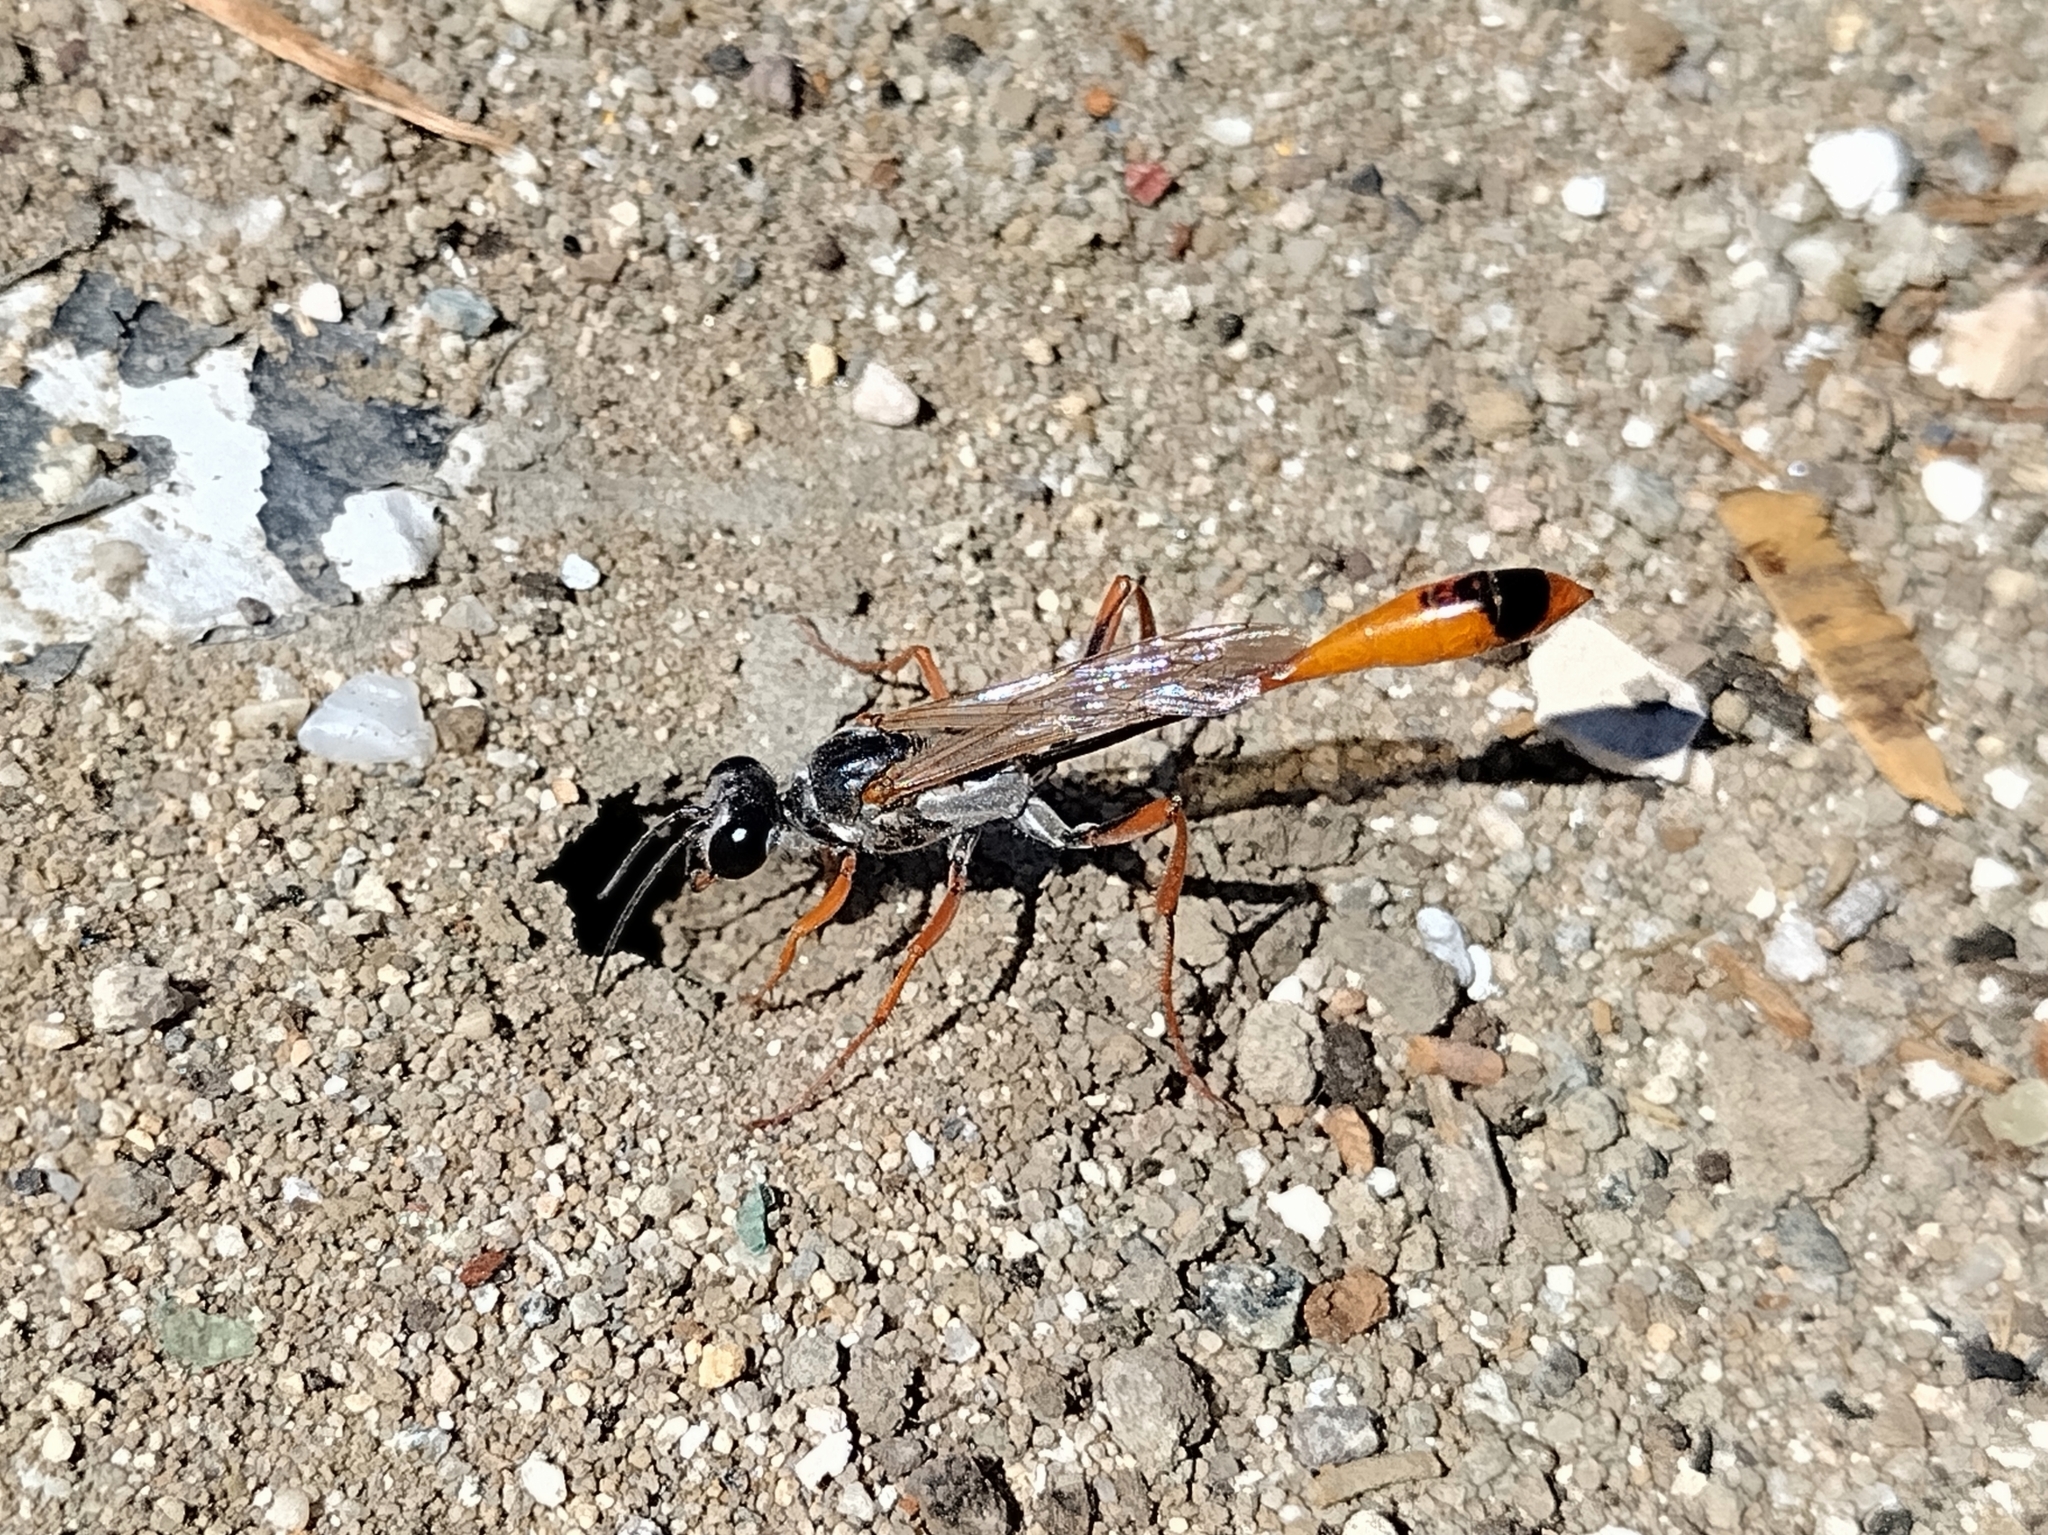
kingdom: Animalia
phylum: Arthropoda
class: Insecta
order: Hymenoptera
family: Sphecidae
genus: Ammophila
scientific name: Ammophila aberti
